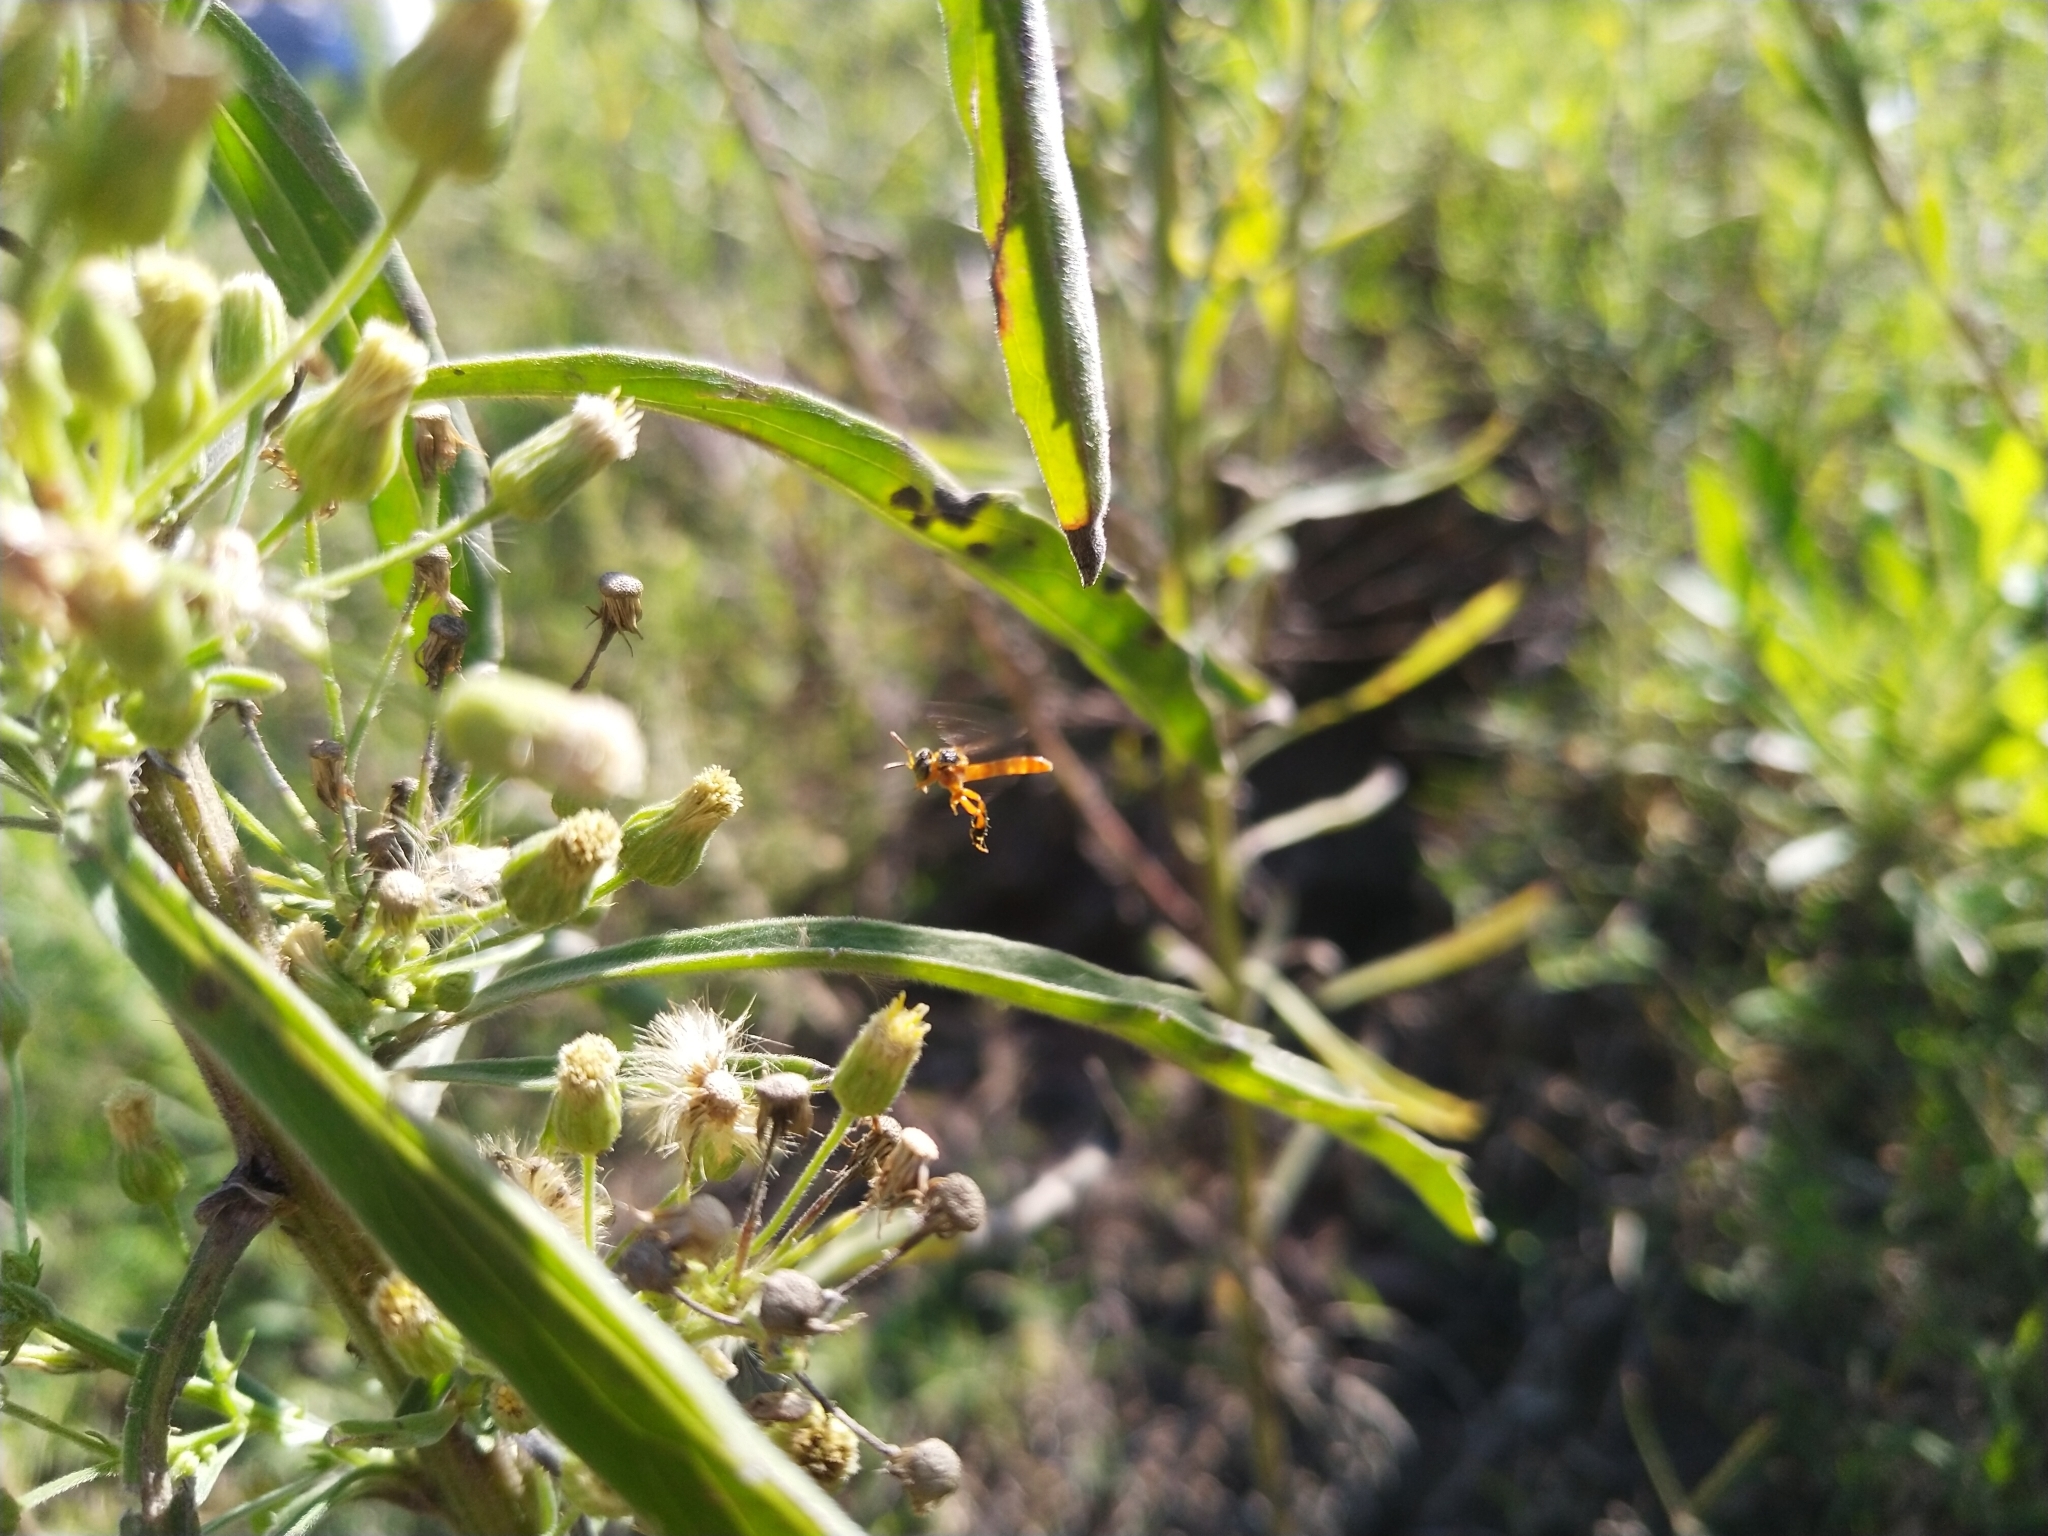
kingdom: Animalia
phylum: Arthropoda
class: Insecta
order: Hymenoptera
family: Apidae
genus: Tetragonisca
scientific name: Tetragonisca fiebrigi
